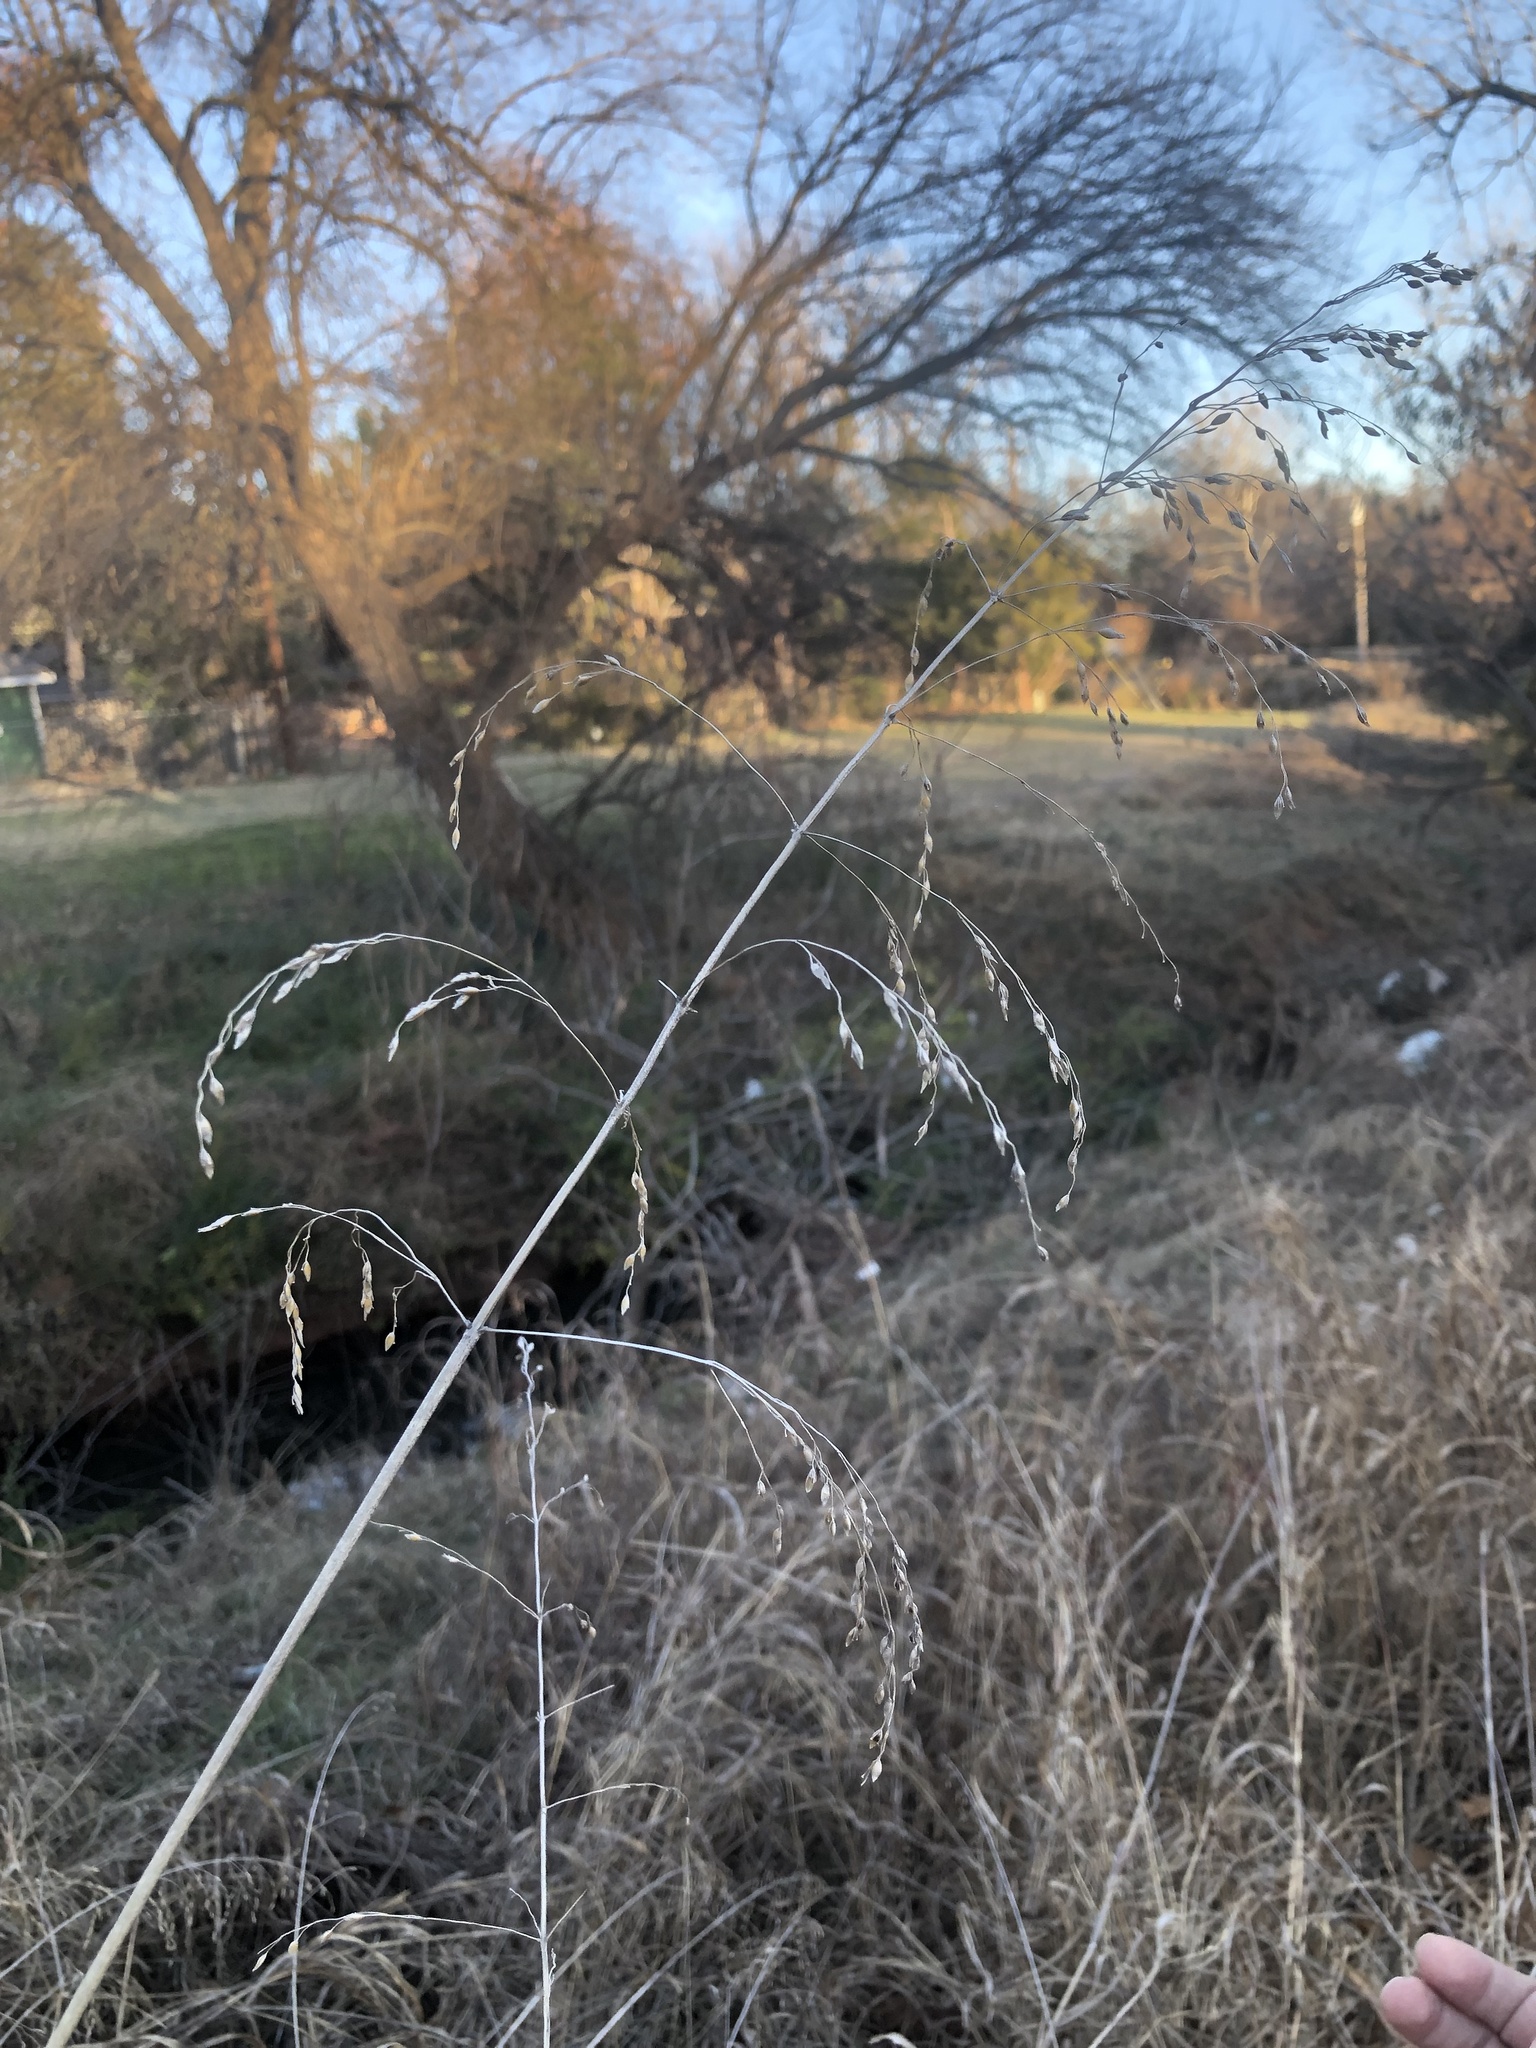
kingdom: Plantae
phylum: Tracheophyta
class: Liliopsida
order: Poales
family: Poaceae
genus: Sorghum
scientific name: Sorghum halepense
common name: Johnson-grass
